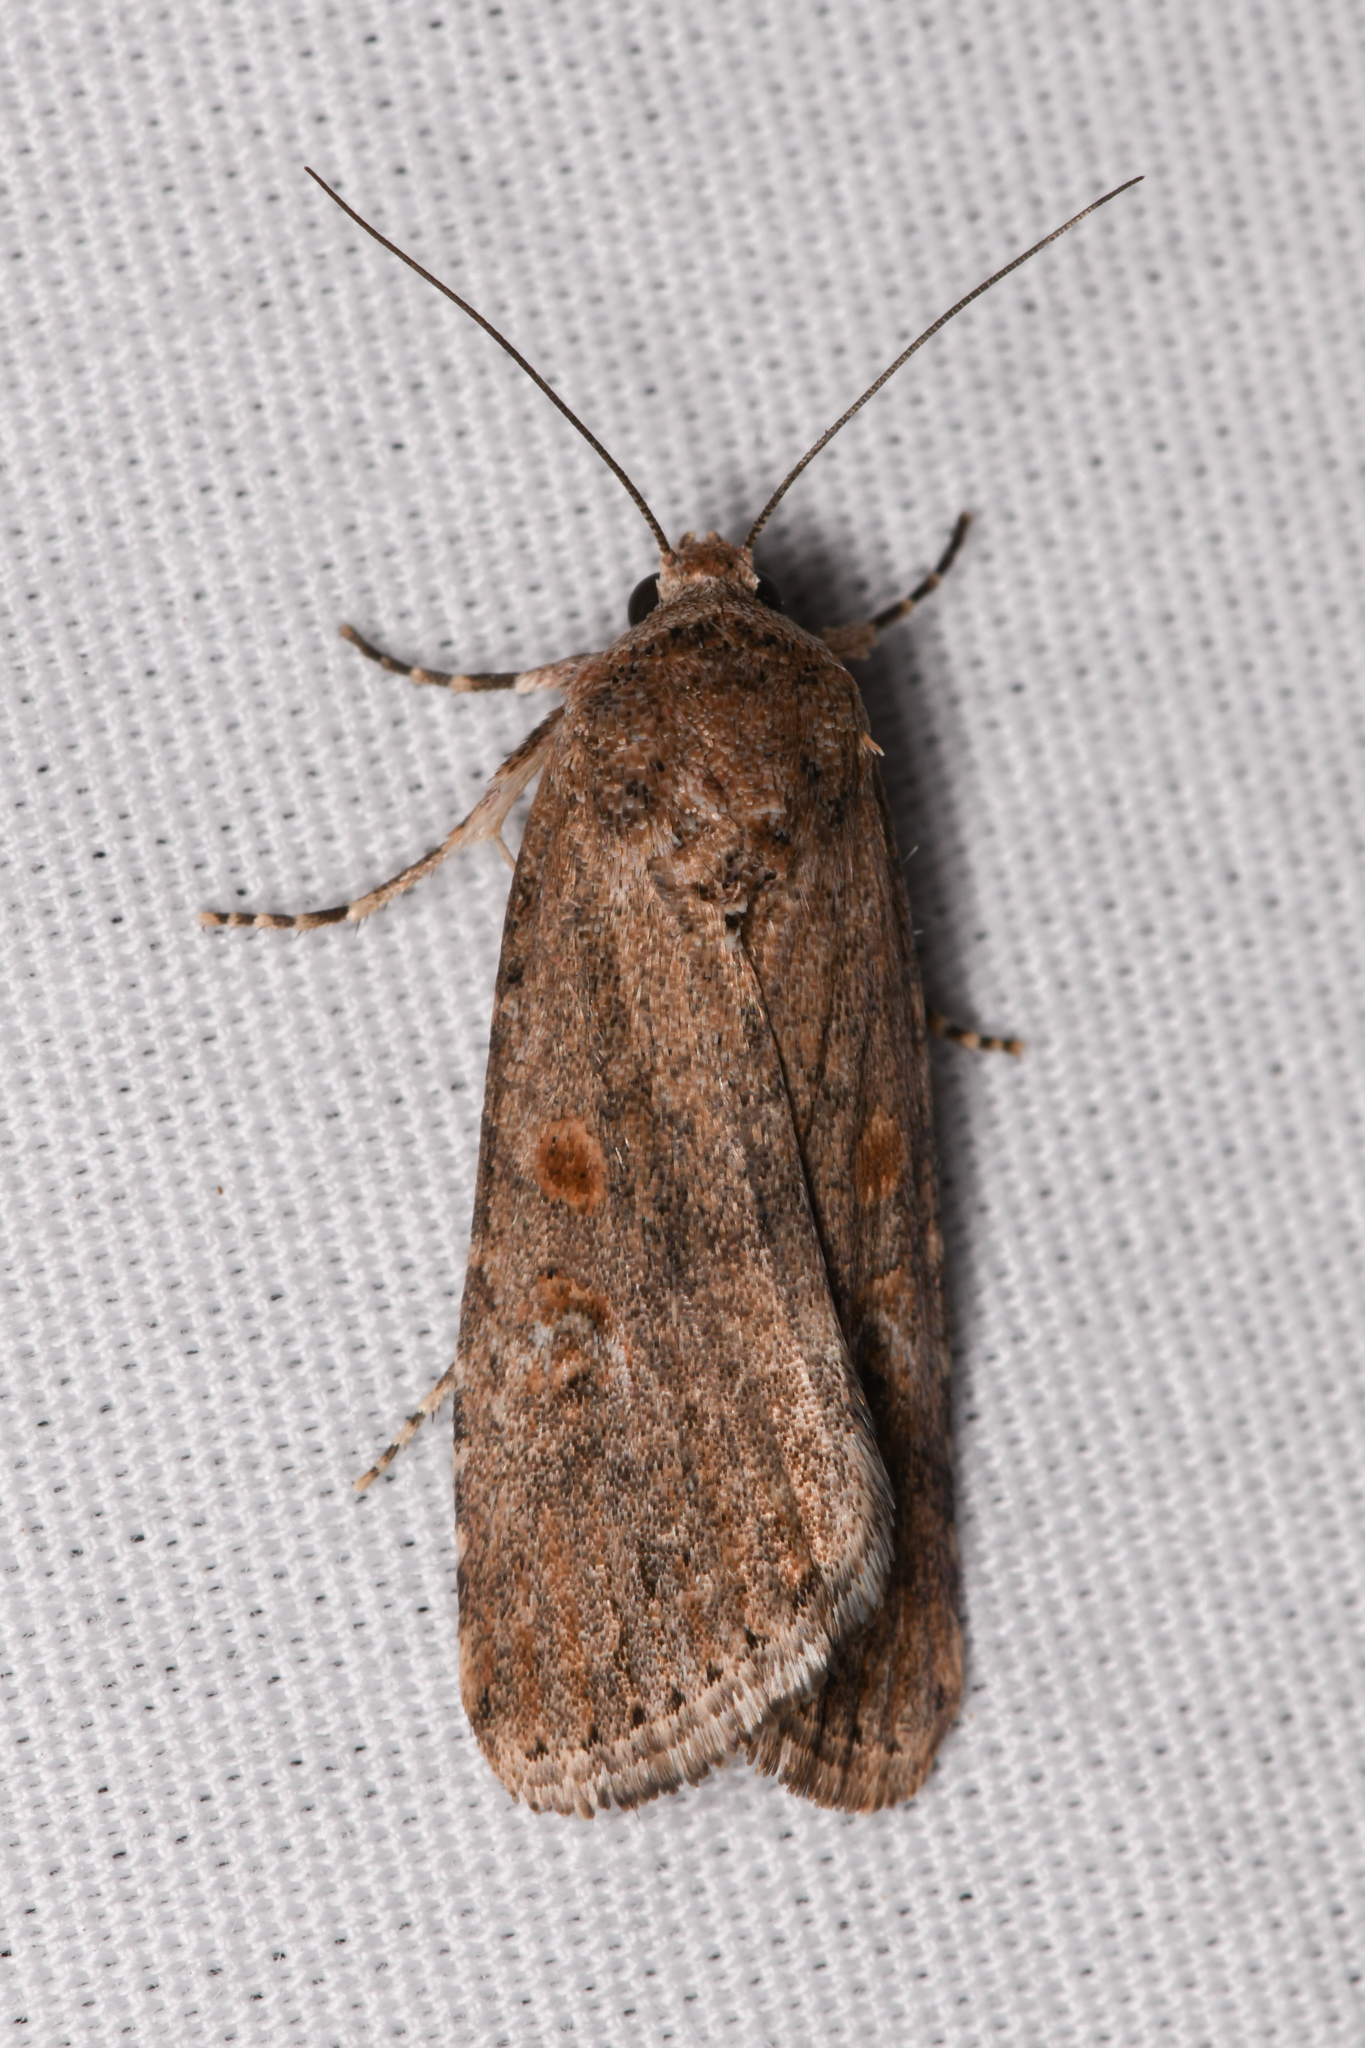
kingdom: Animalia
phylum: Arthropoda
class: Insecta
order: Lepidoptera
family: Noctuidae
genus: Spodoptera
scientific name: Spodoptera exigua
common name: Beet armyworm
